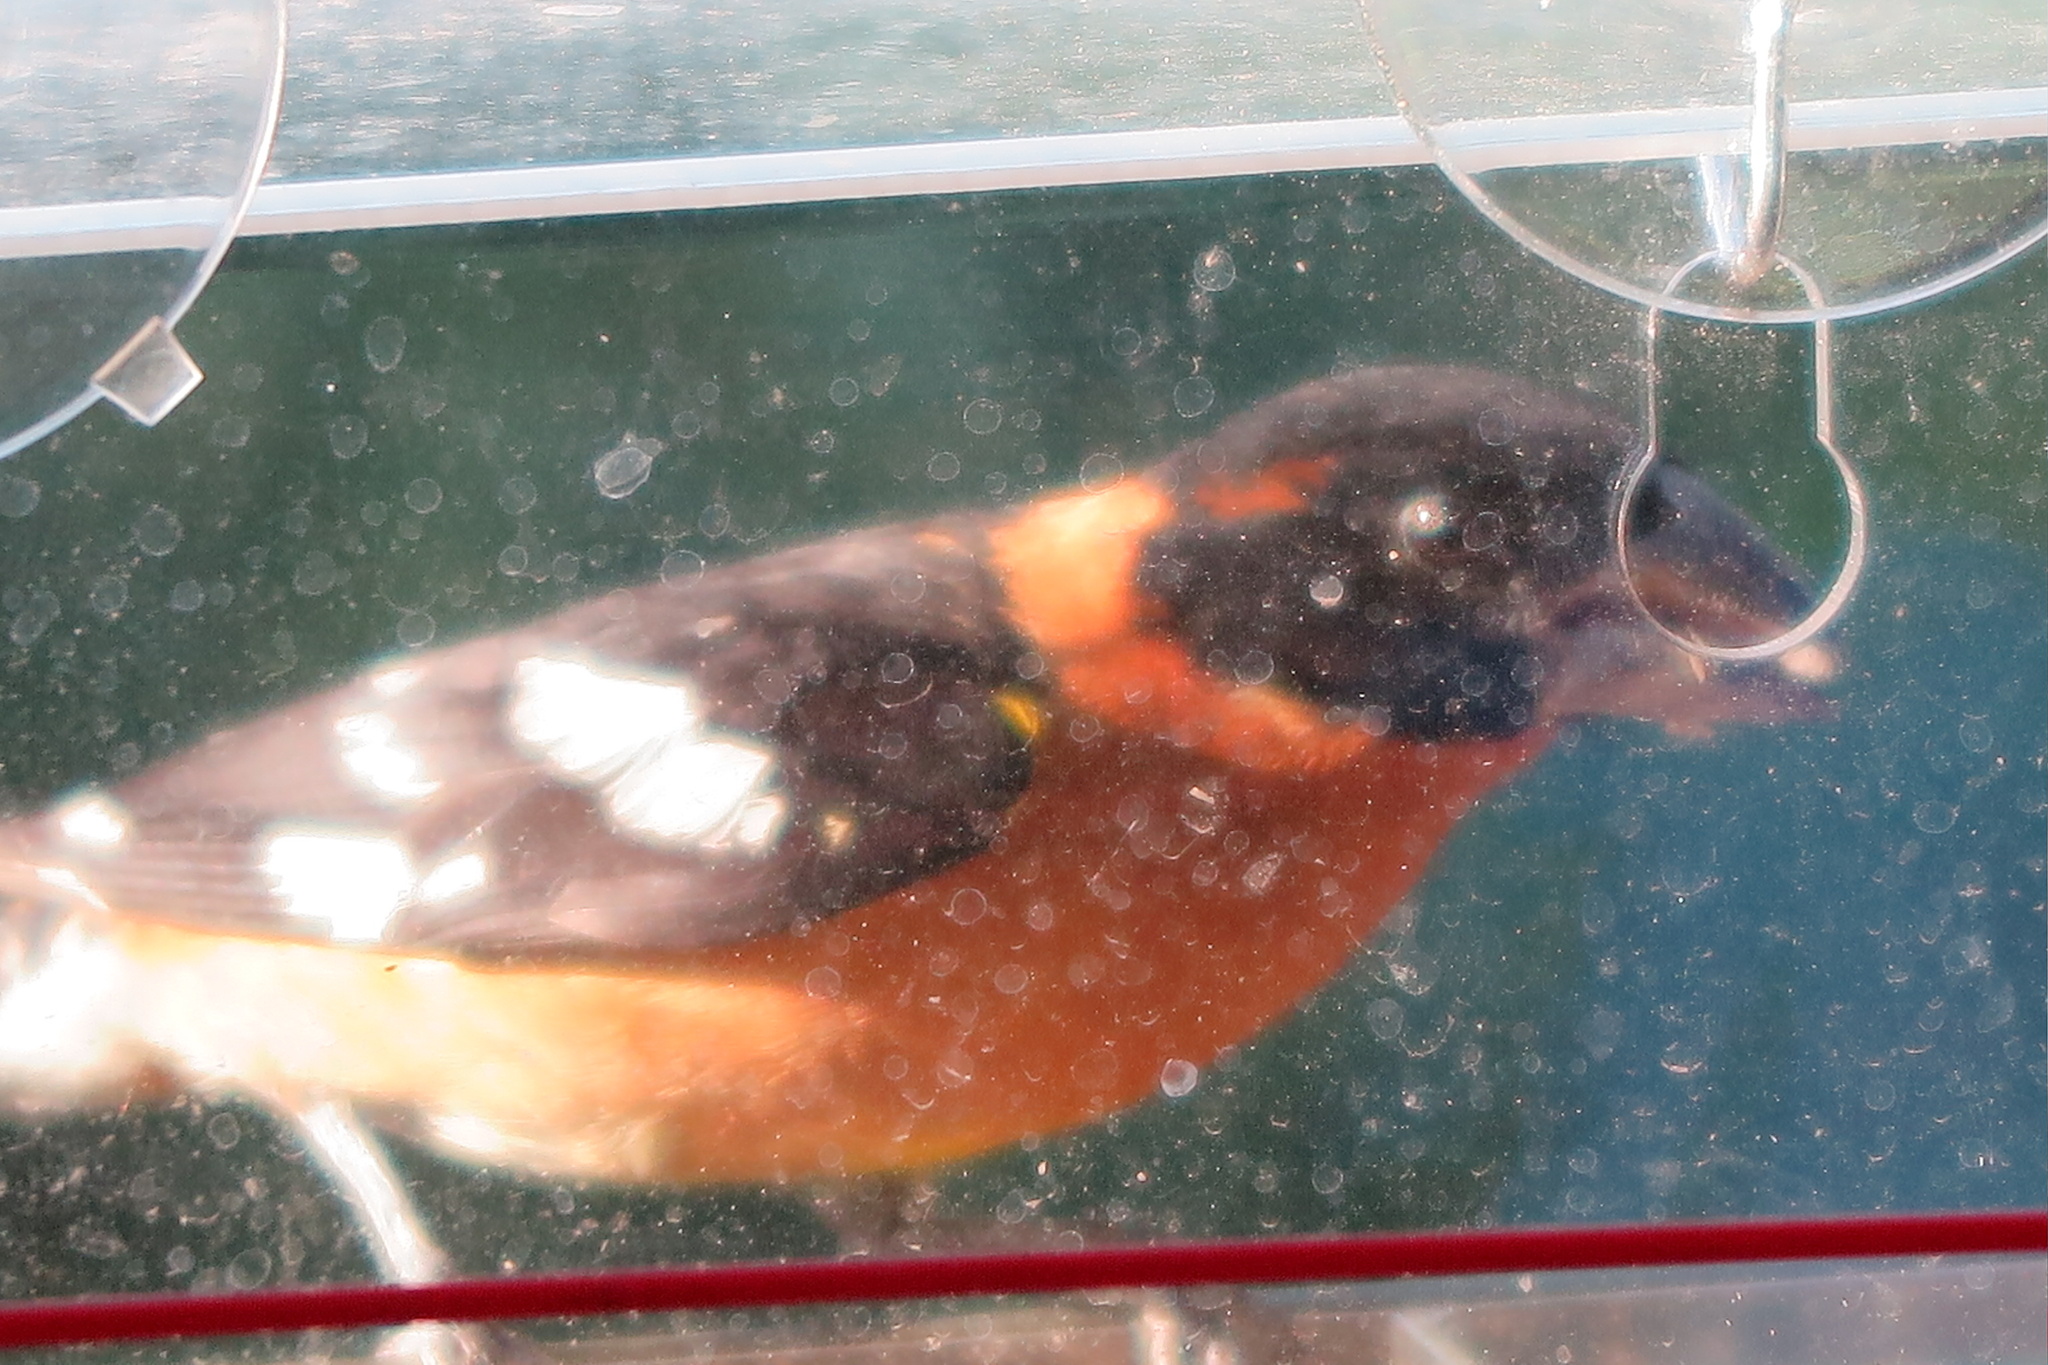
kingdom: Animalia
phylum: Chordata
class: Aves
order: Passeriformes
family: Cardinalidae
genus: Pheucticus
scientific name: Pheucticus melanocephalus
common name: Black-headed grosbeak
